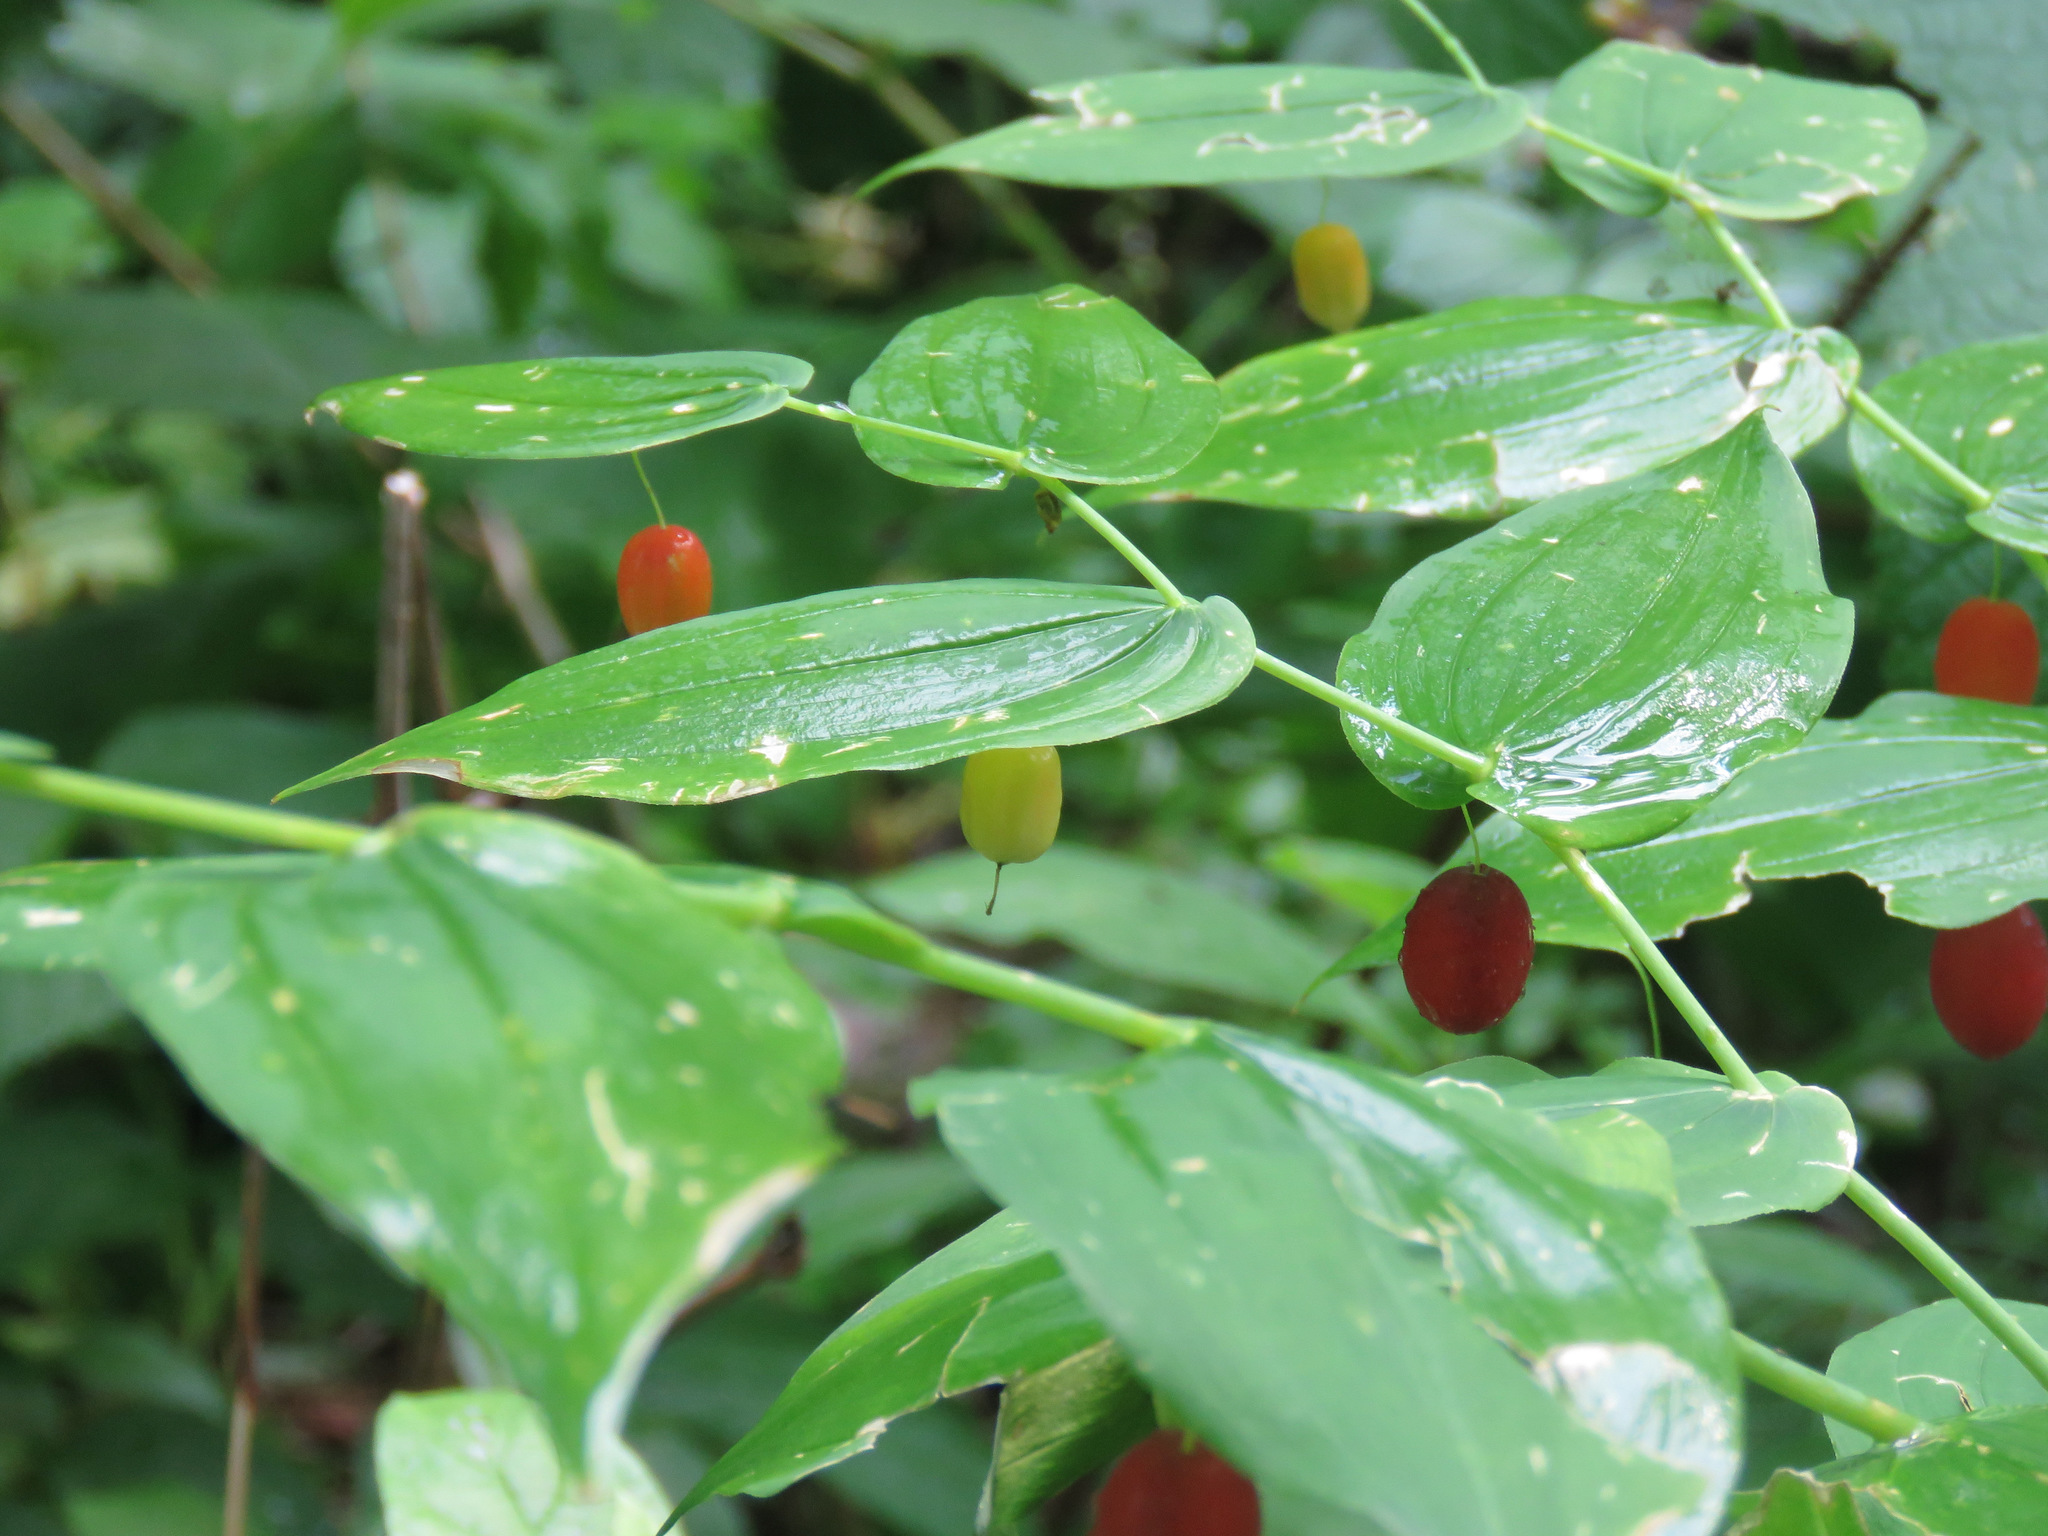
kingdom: Plantae
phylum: Tracheophyta
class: Liliopsida
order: Liliales
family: Liliaceae
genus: Streptopus
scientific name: Streptopus amplexifolius
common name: Clasp twisted stalk
